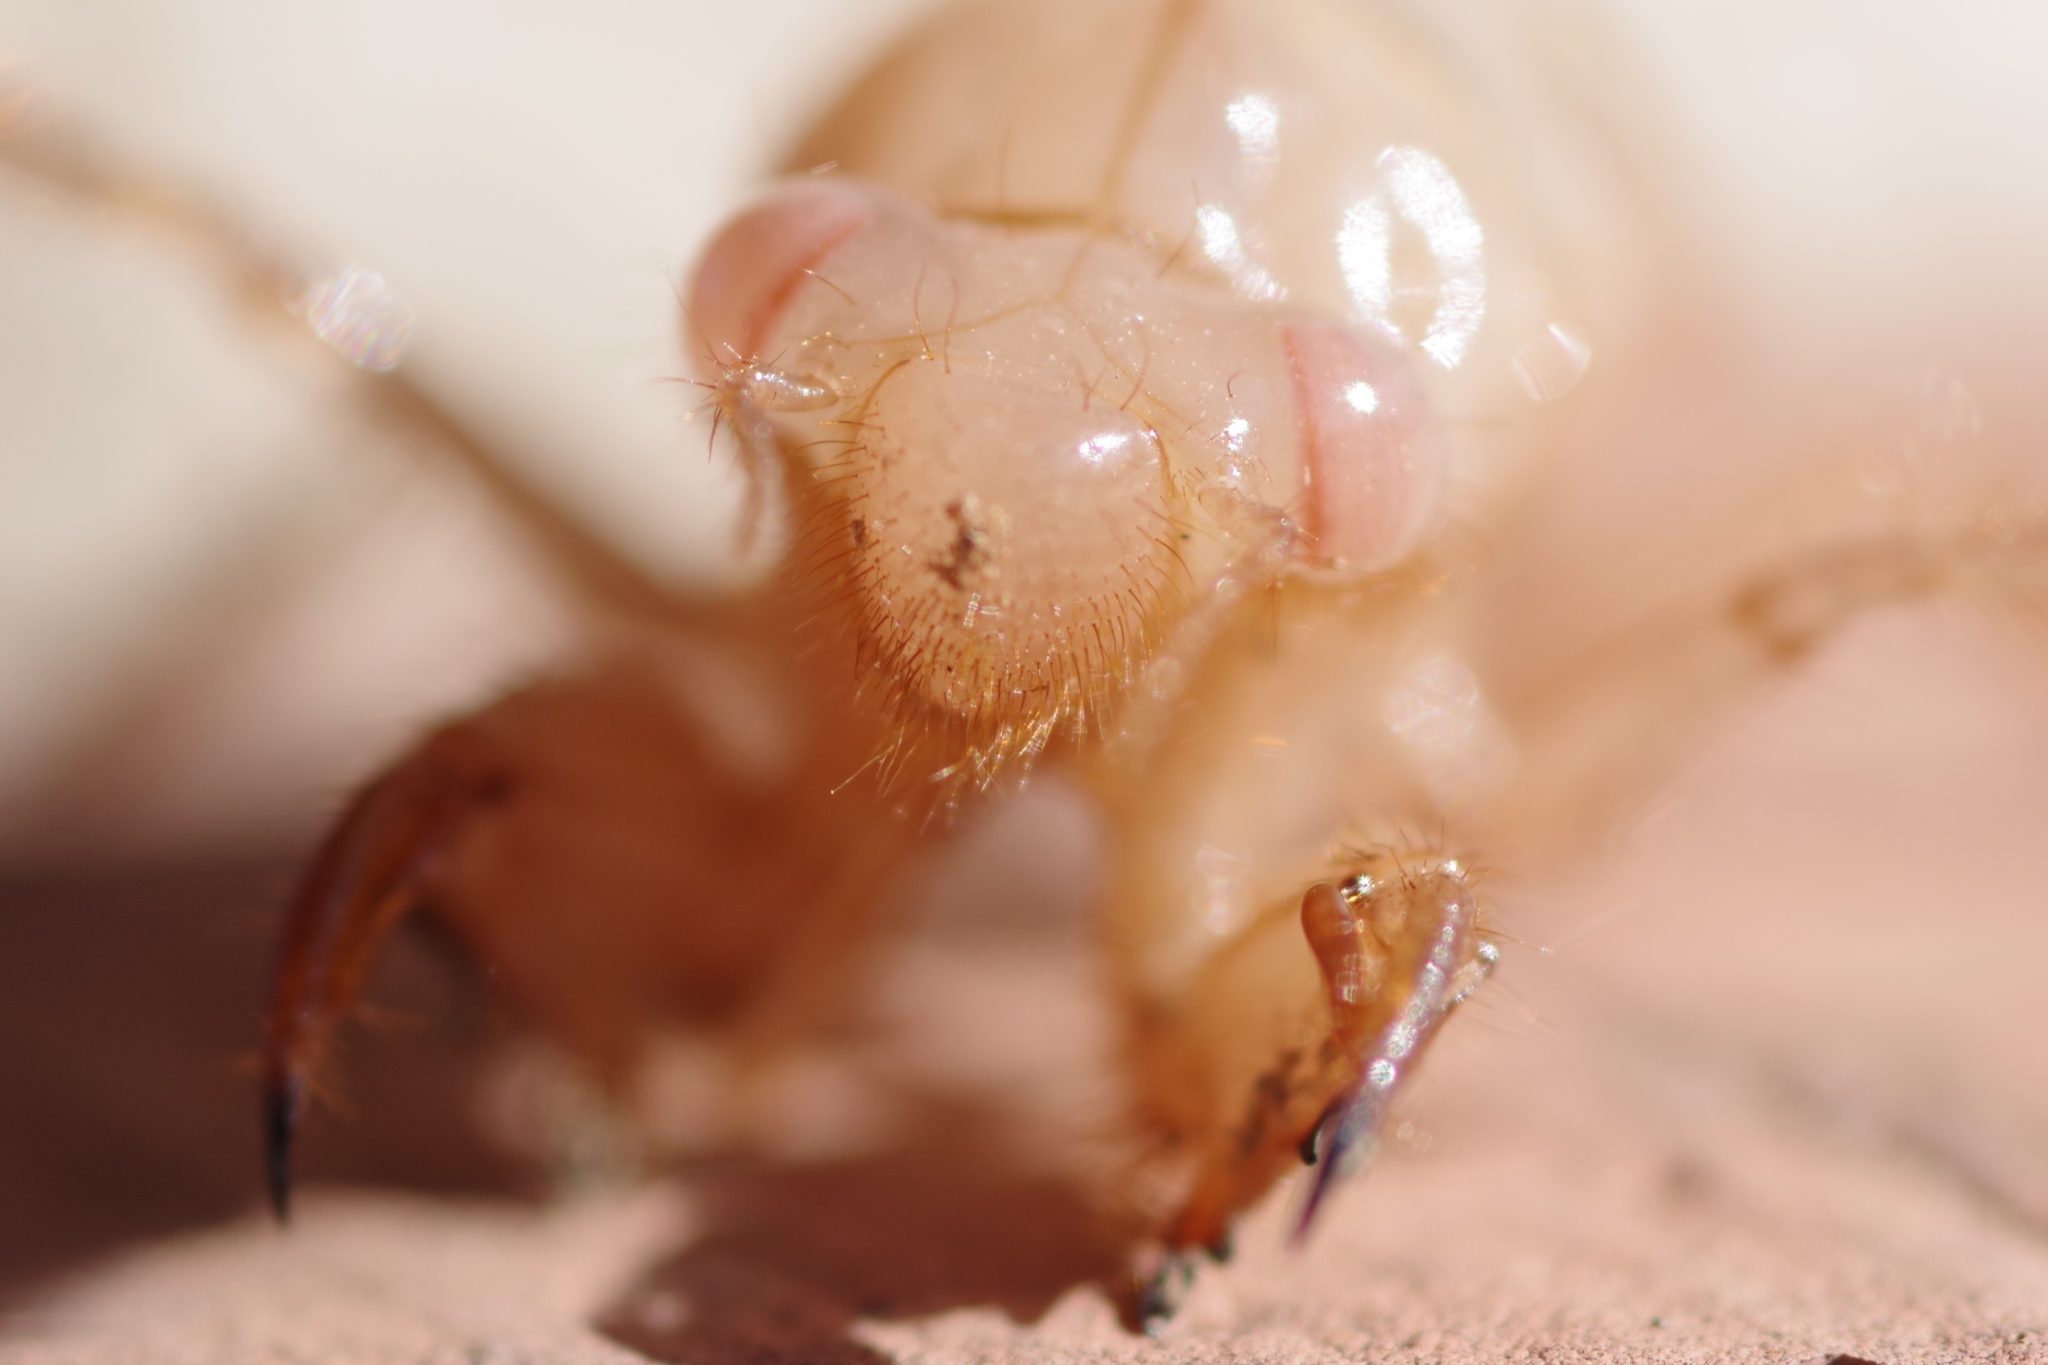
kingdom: Animalia
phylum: Arthropoda
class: Insecta
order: Hemiptera
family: Cicadidae
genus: Cicada
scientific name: Cicada orni
